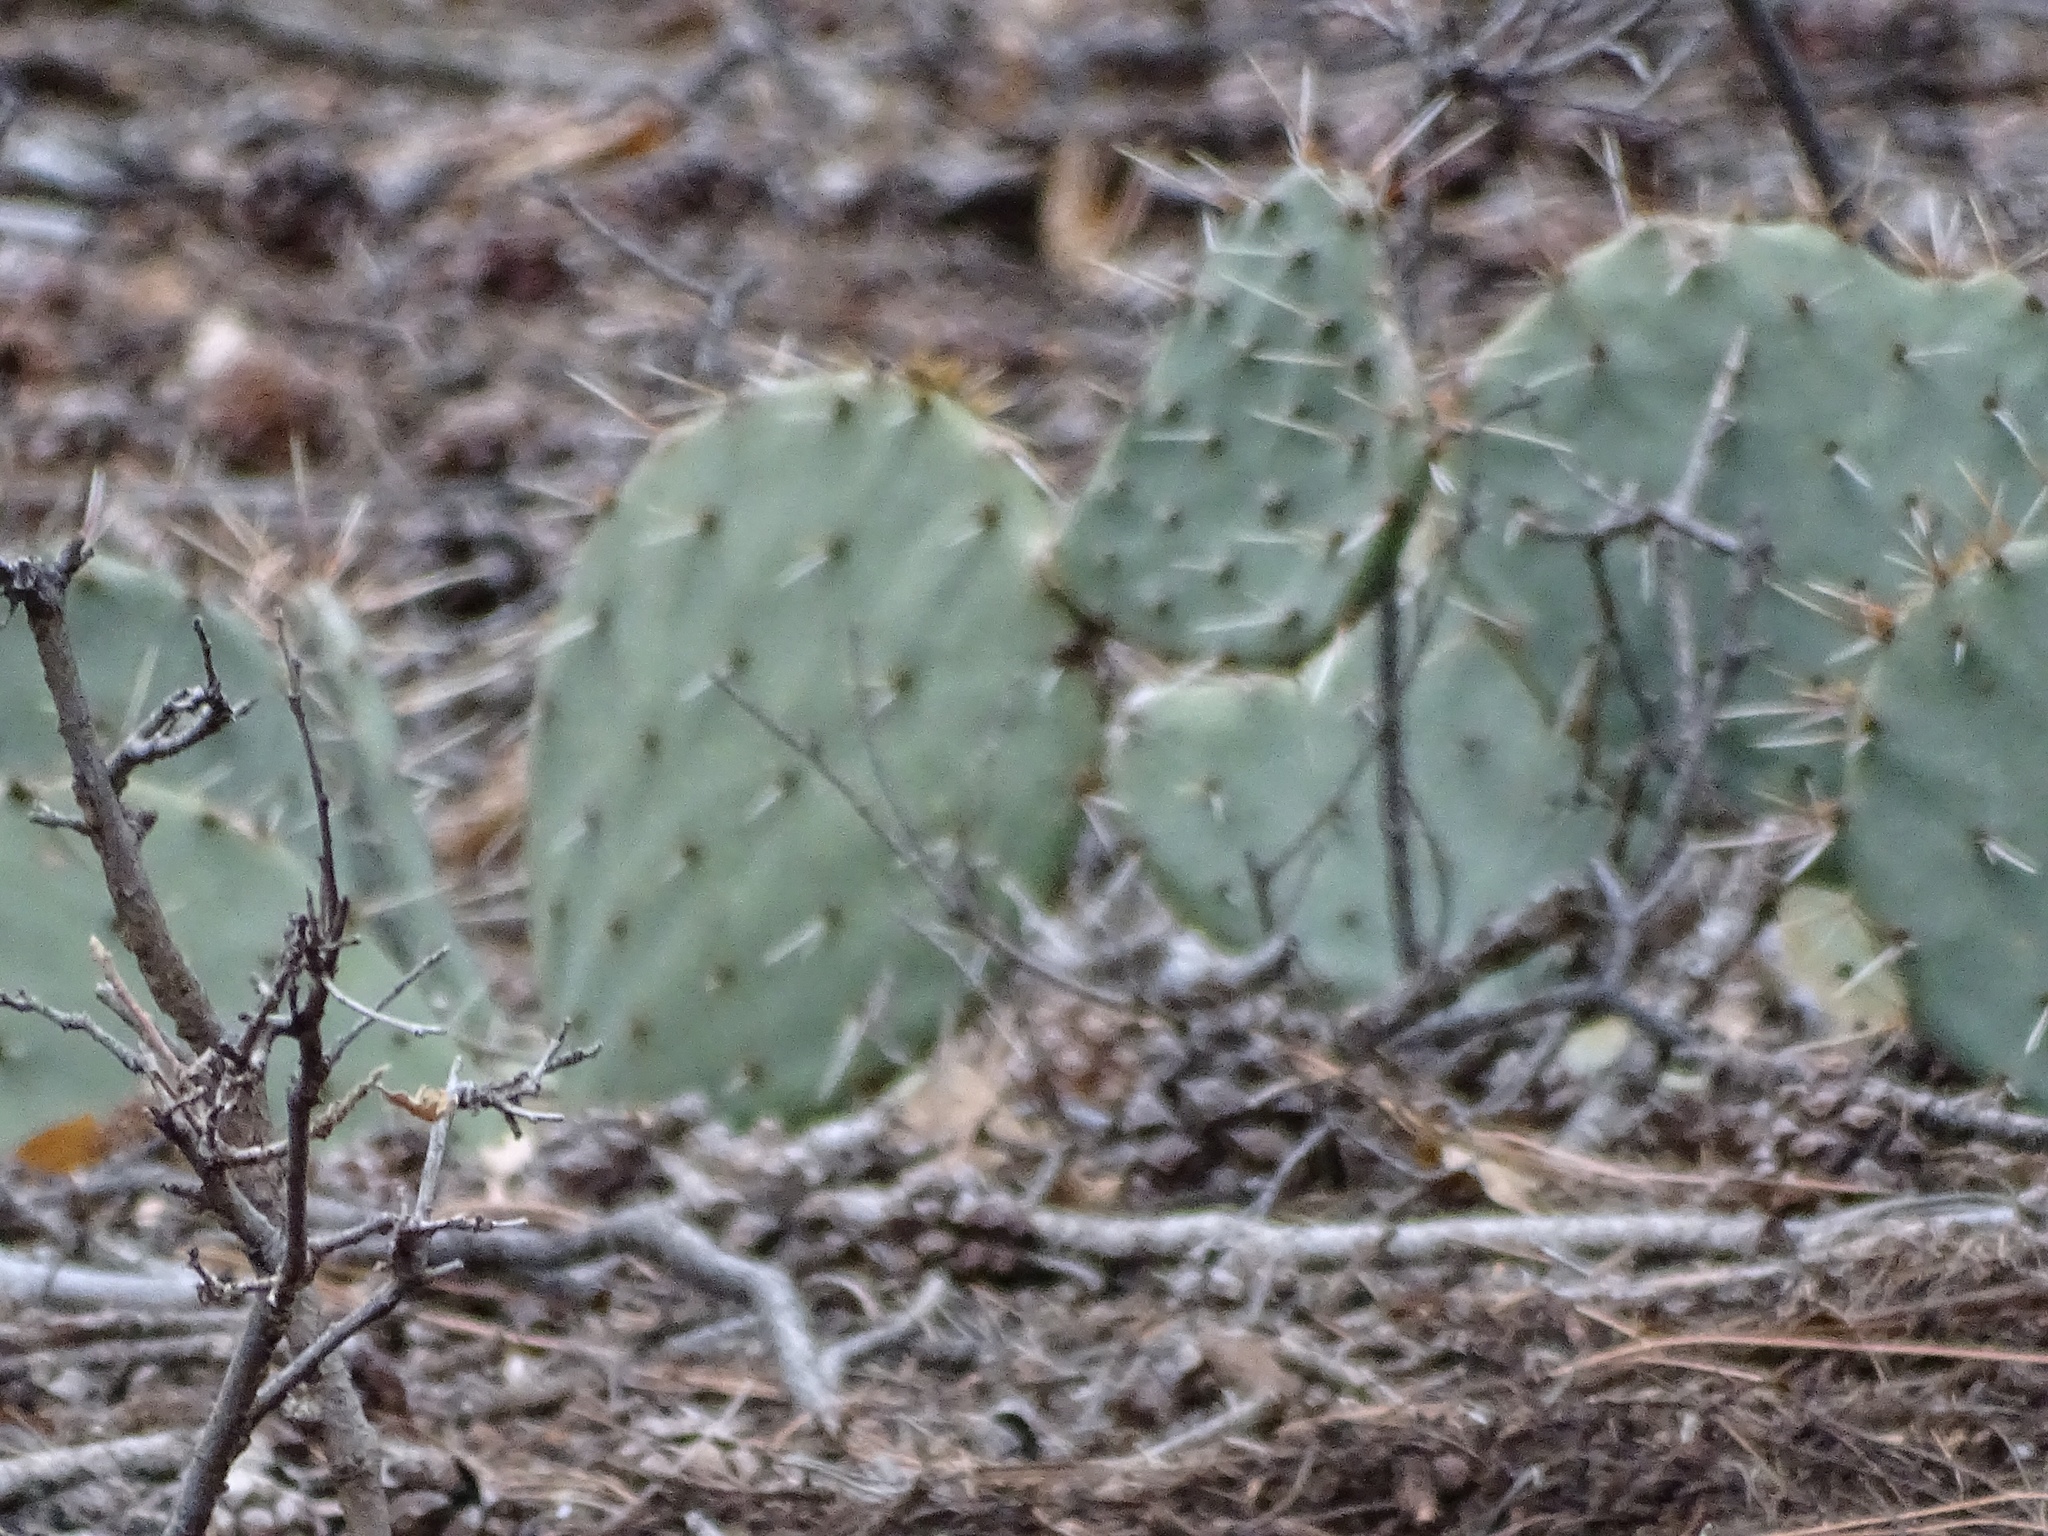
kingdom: Plantae
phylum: Tracheophyta
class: Magnoliopsida
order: Caryophyllales
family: Cactaceae
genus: Opuntia
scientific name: Opuntia engelmannii
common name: Cactus-apple
